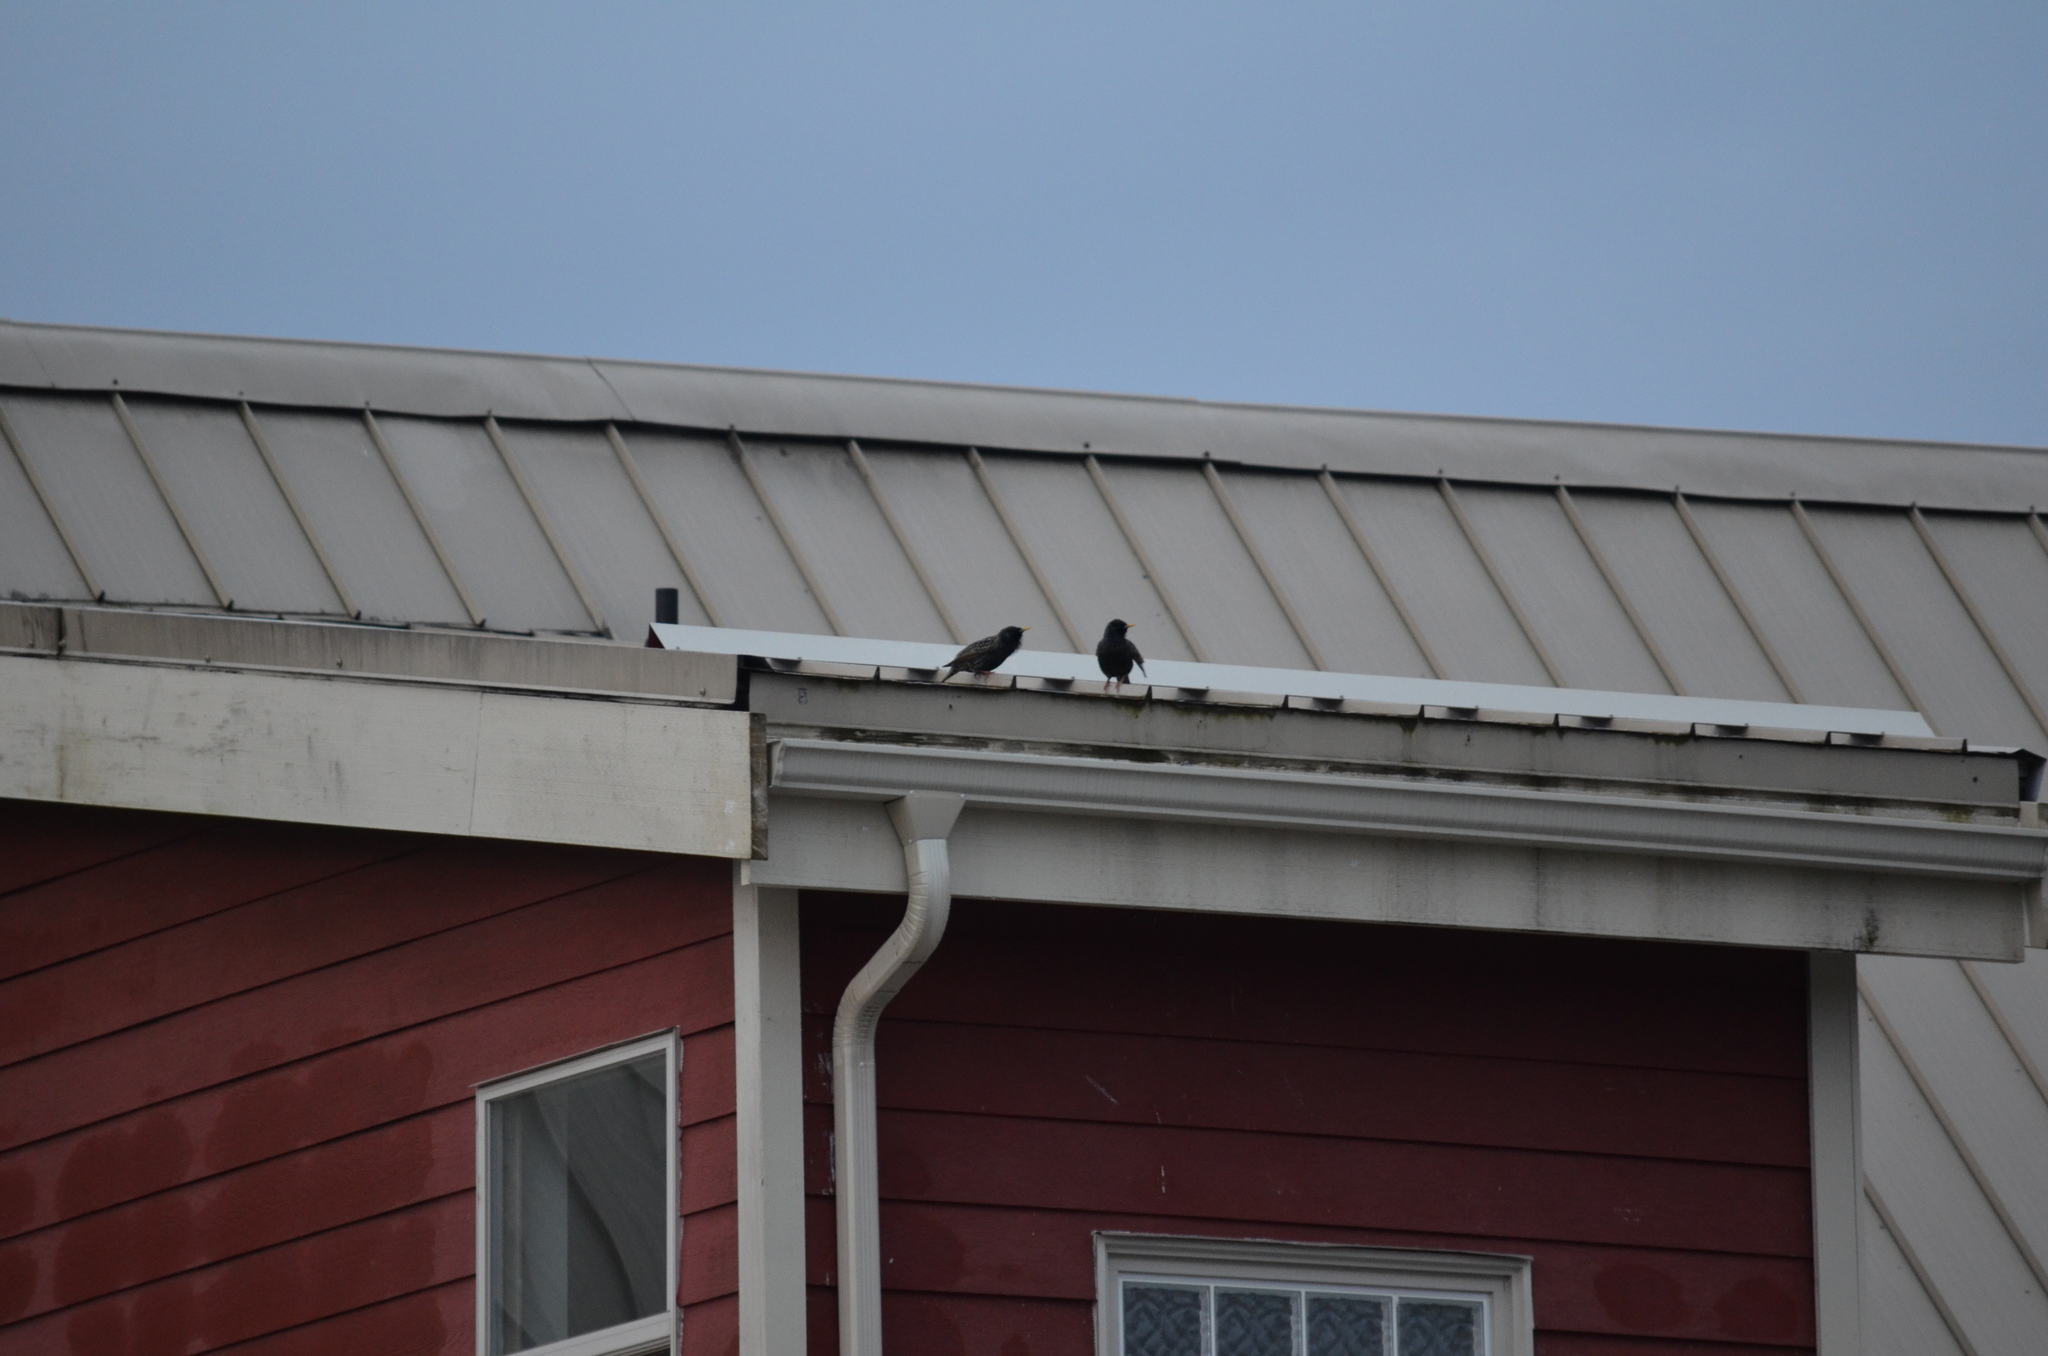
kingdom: Animalia
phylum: Chordata
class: Aves
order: Passeriformes
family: Sturnidae
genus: Sturnus
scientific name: Sturnus vulgaris
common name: Common starling
